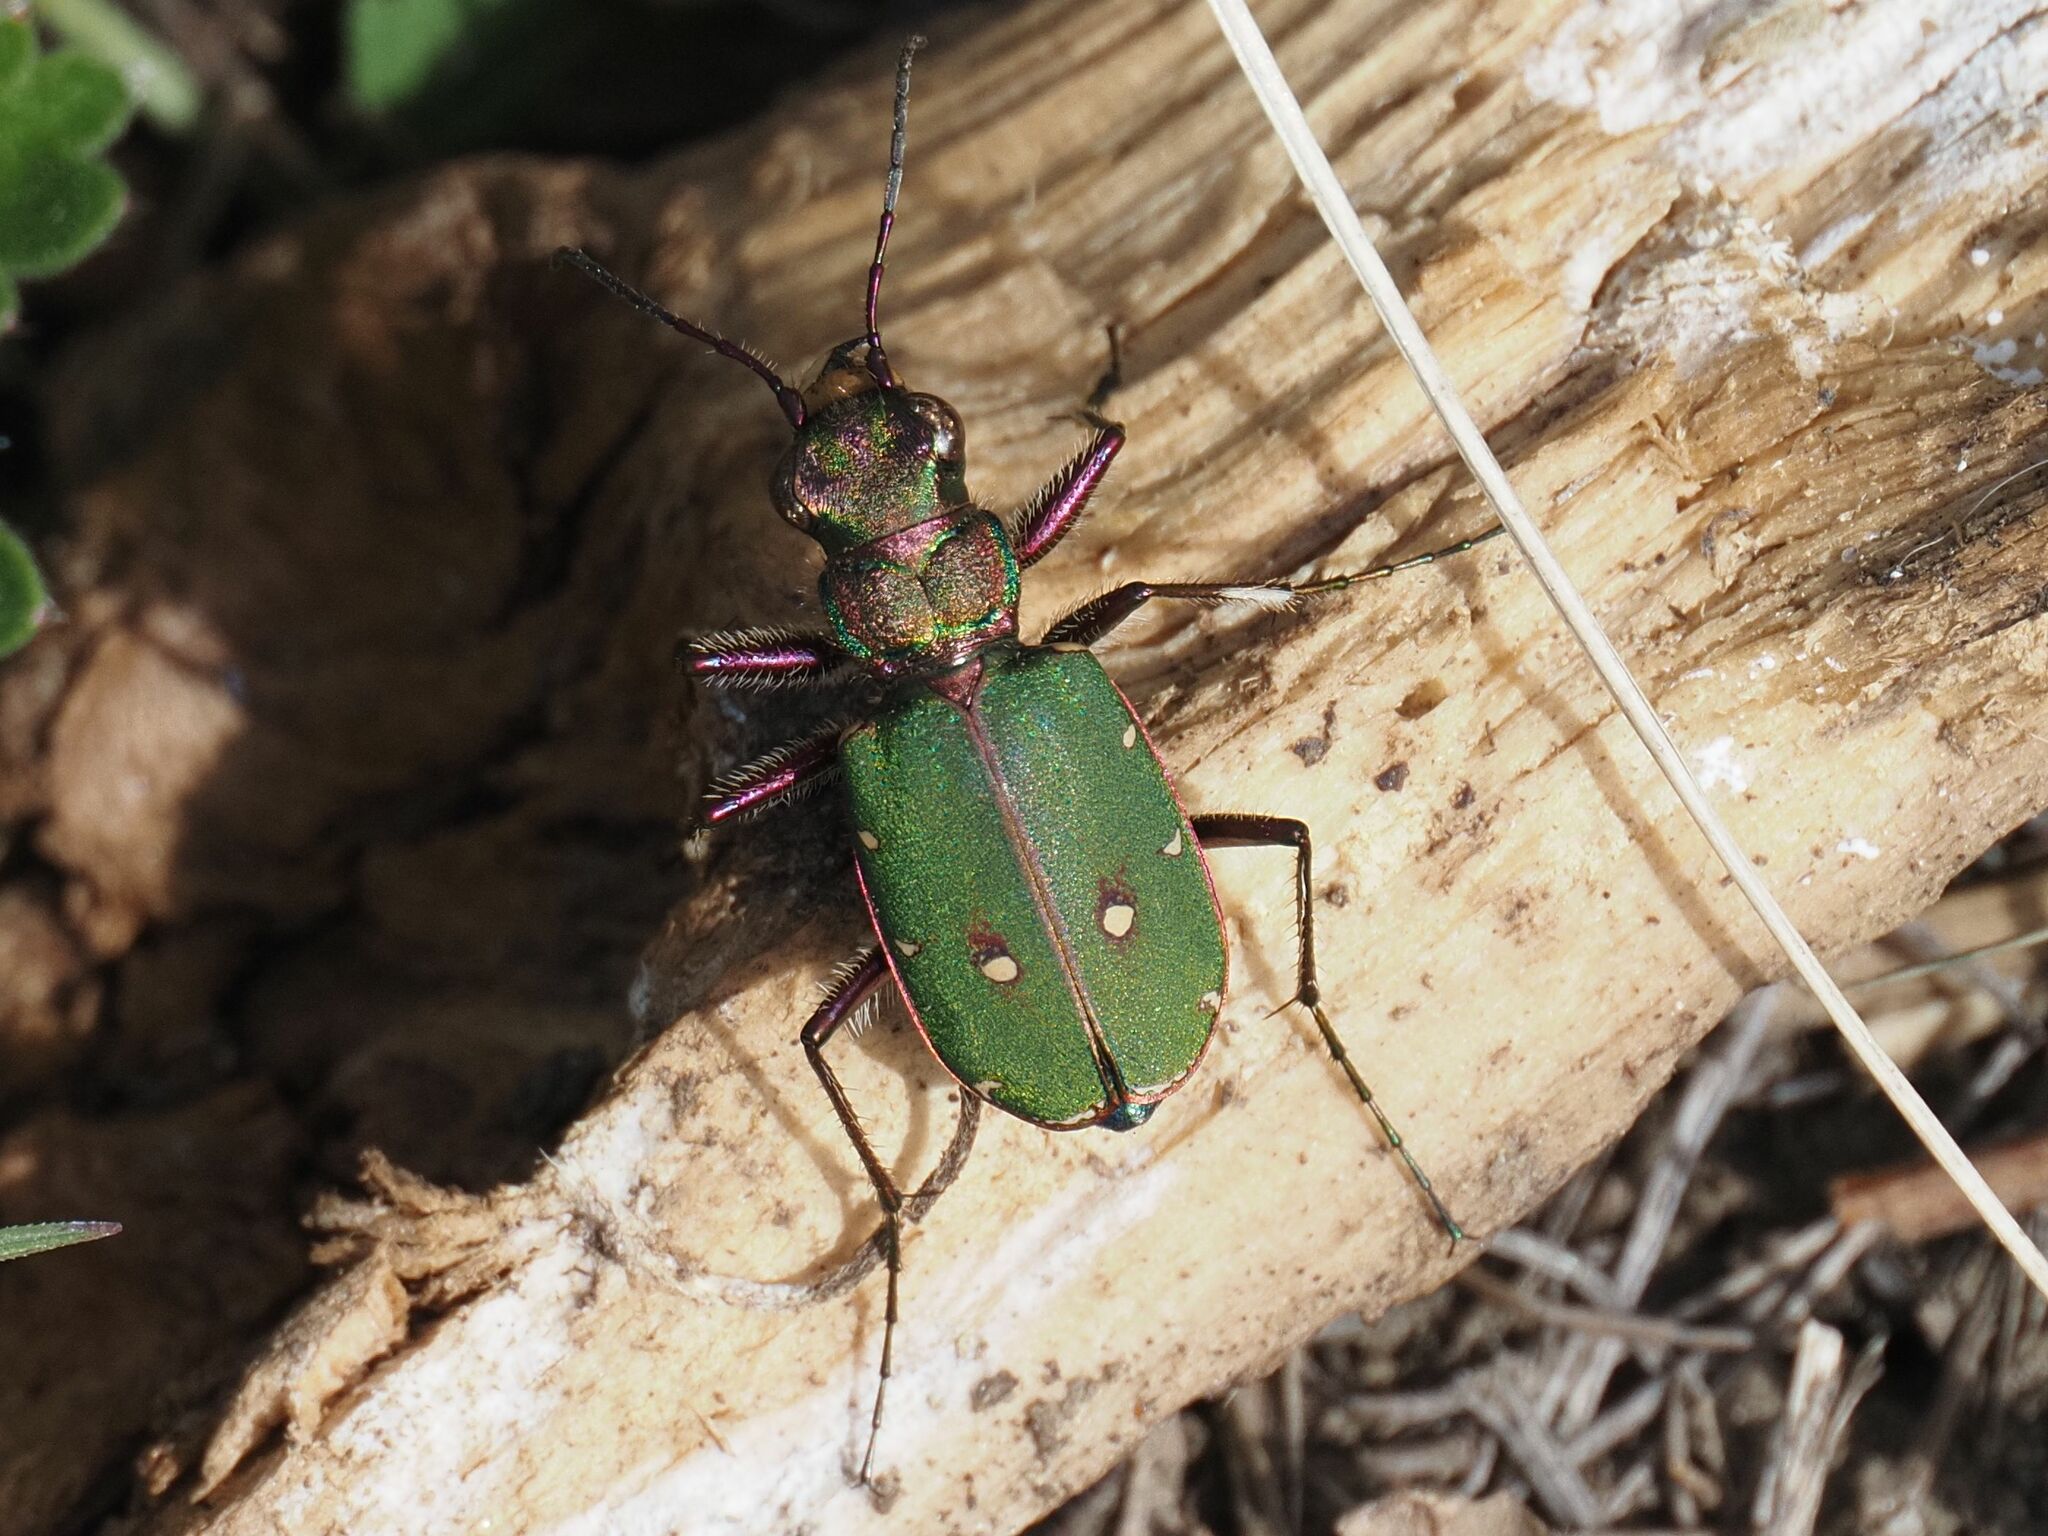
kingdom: Animalia
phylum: Arthropoda
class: Insecta
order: Coleoptera
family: Carabidae
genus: Cicindela
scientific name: Cicindela campestris
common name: Common tiger beetle
